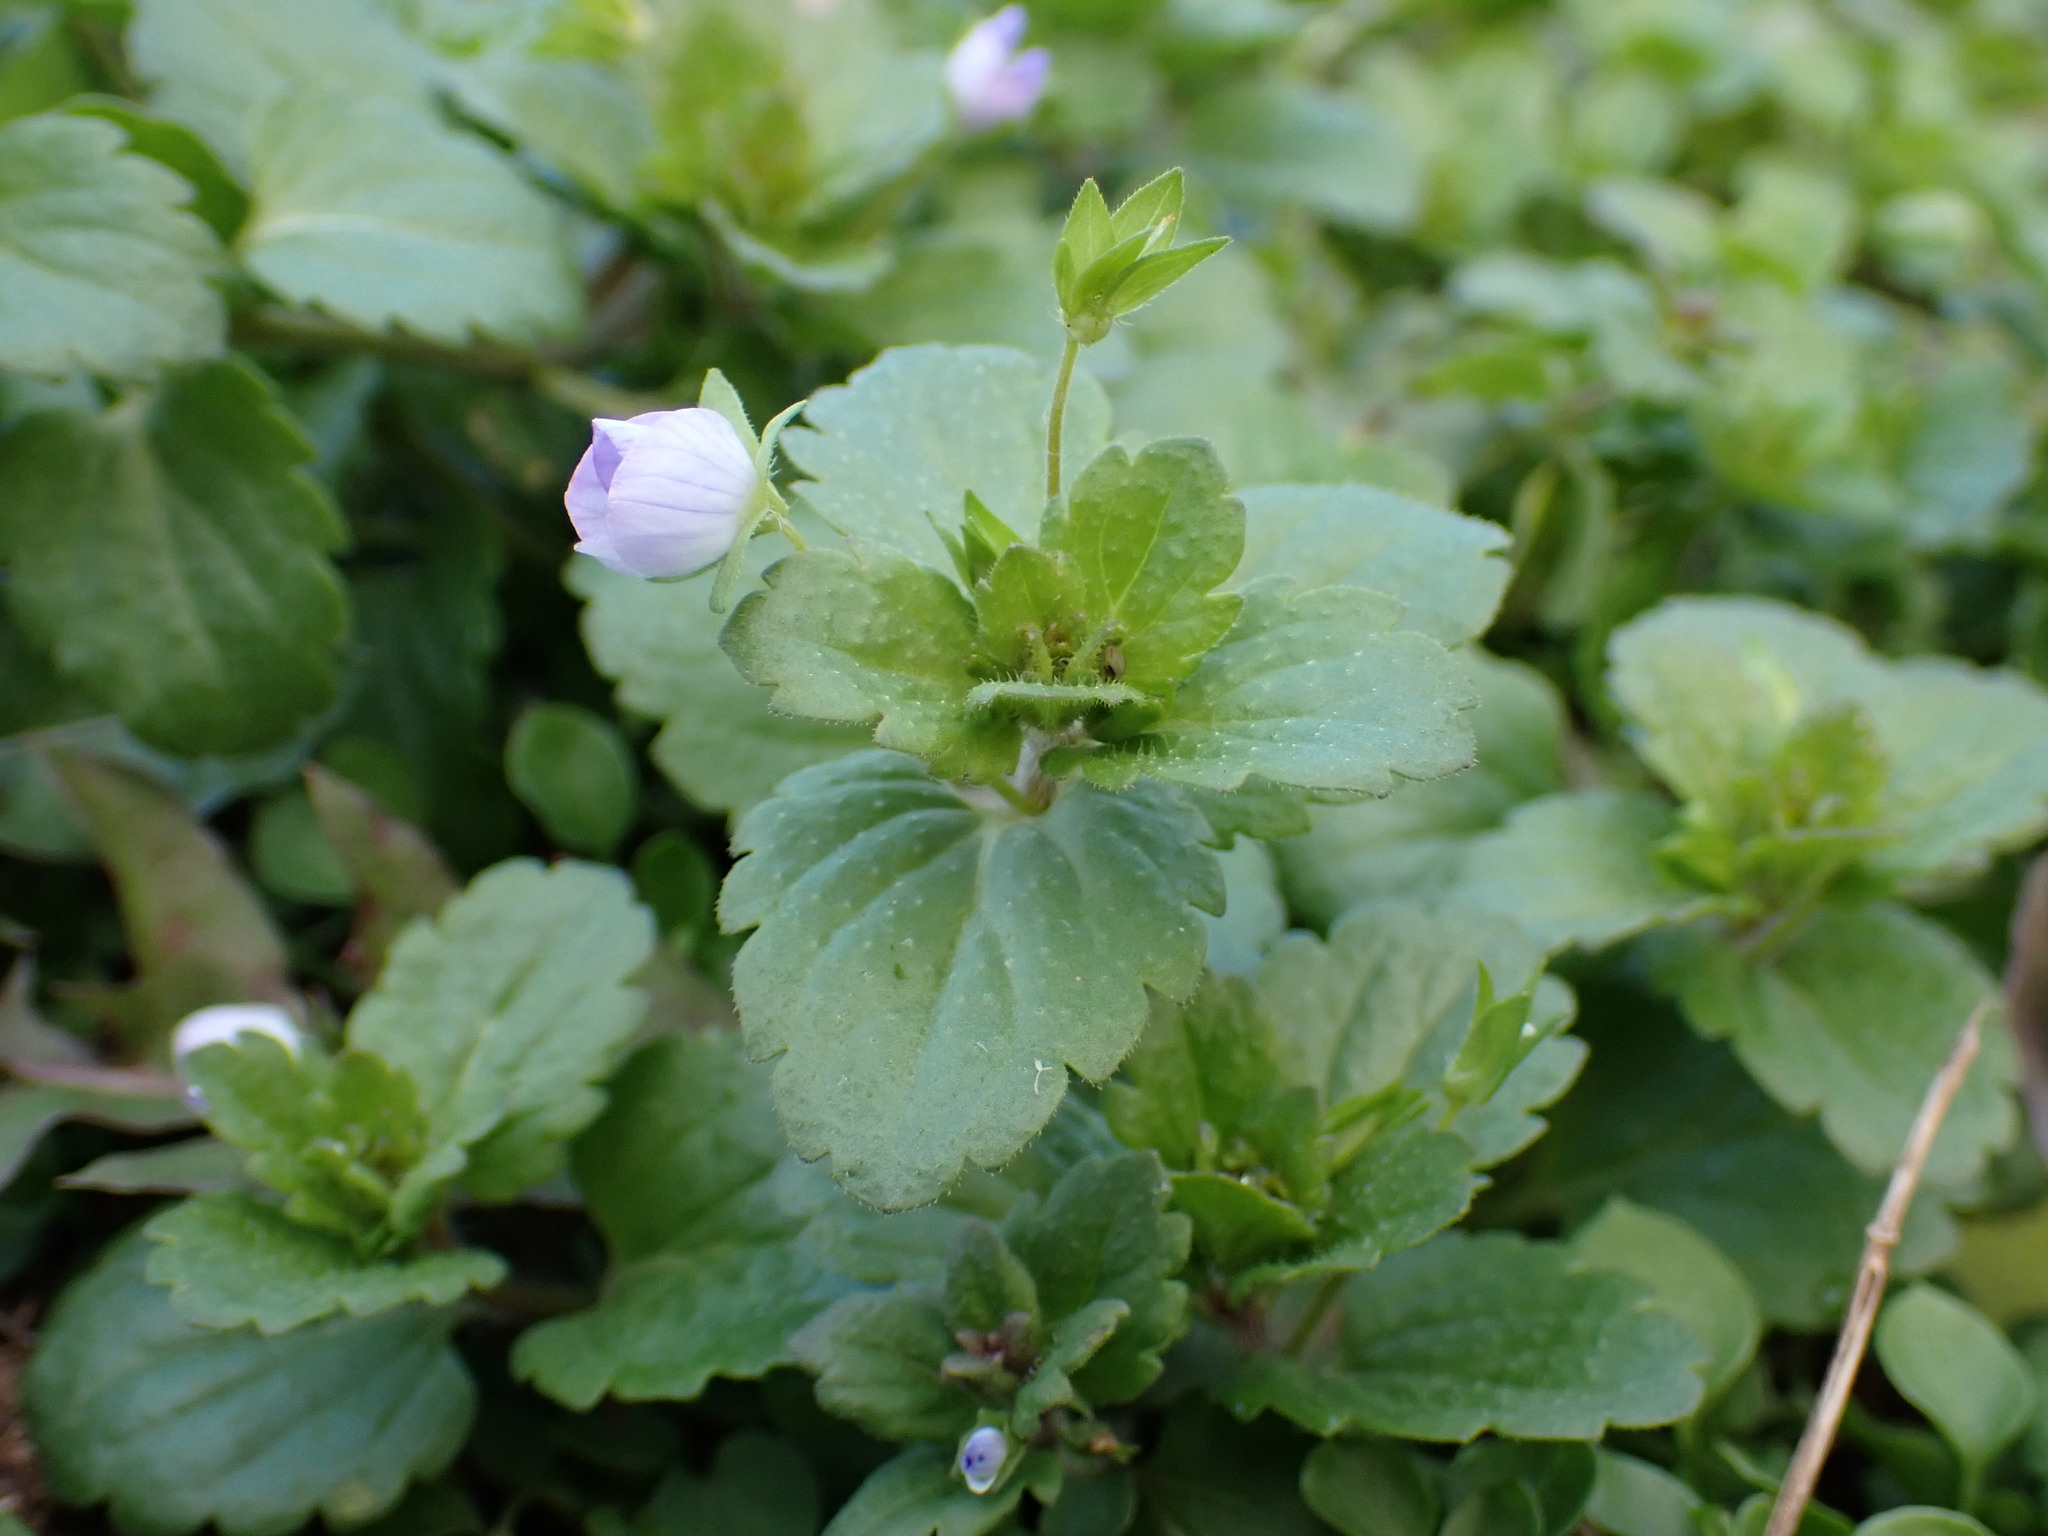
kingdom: Plantae
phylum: Tracheophyta
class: Magnoliopsida
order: Lamiales
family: Plantaginaceae
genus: Veronica
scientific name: Veronica persica
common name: Common field-speedwell
